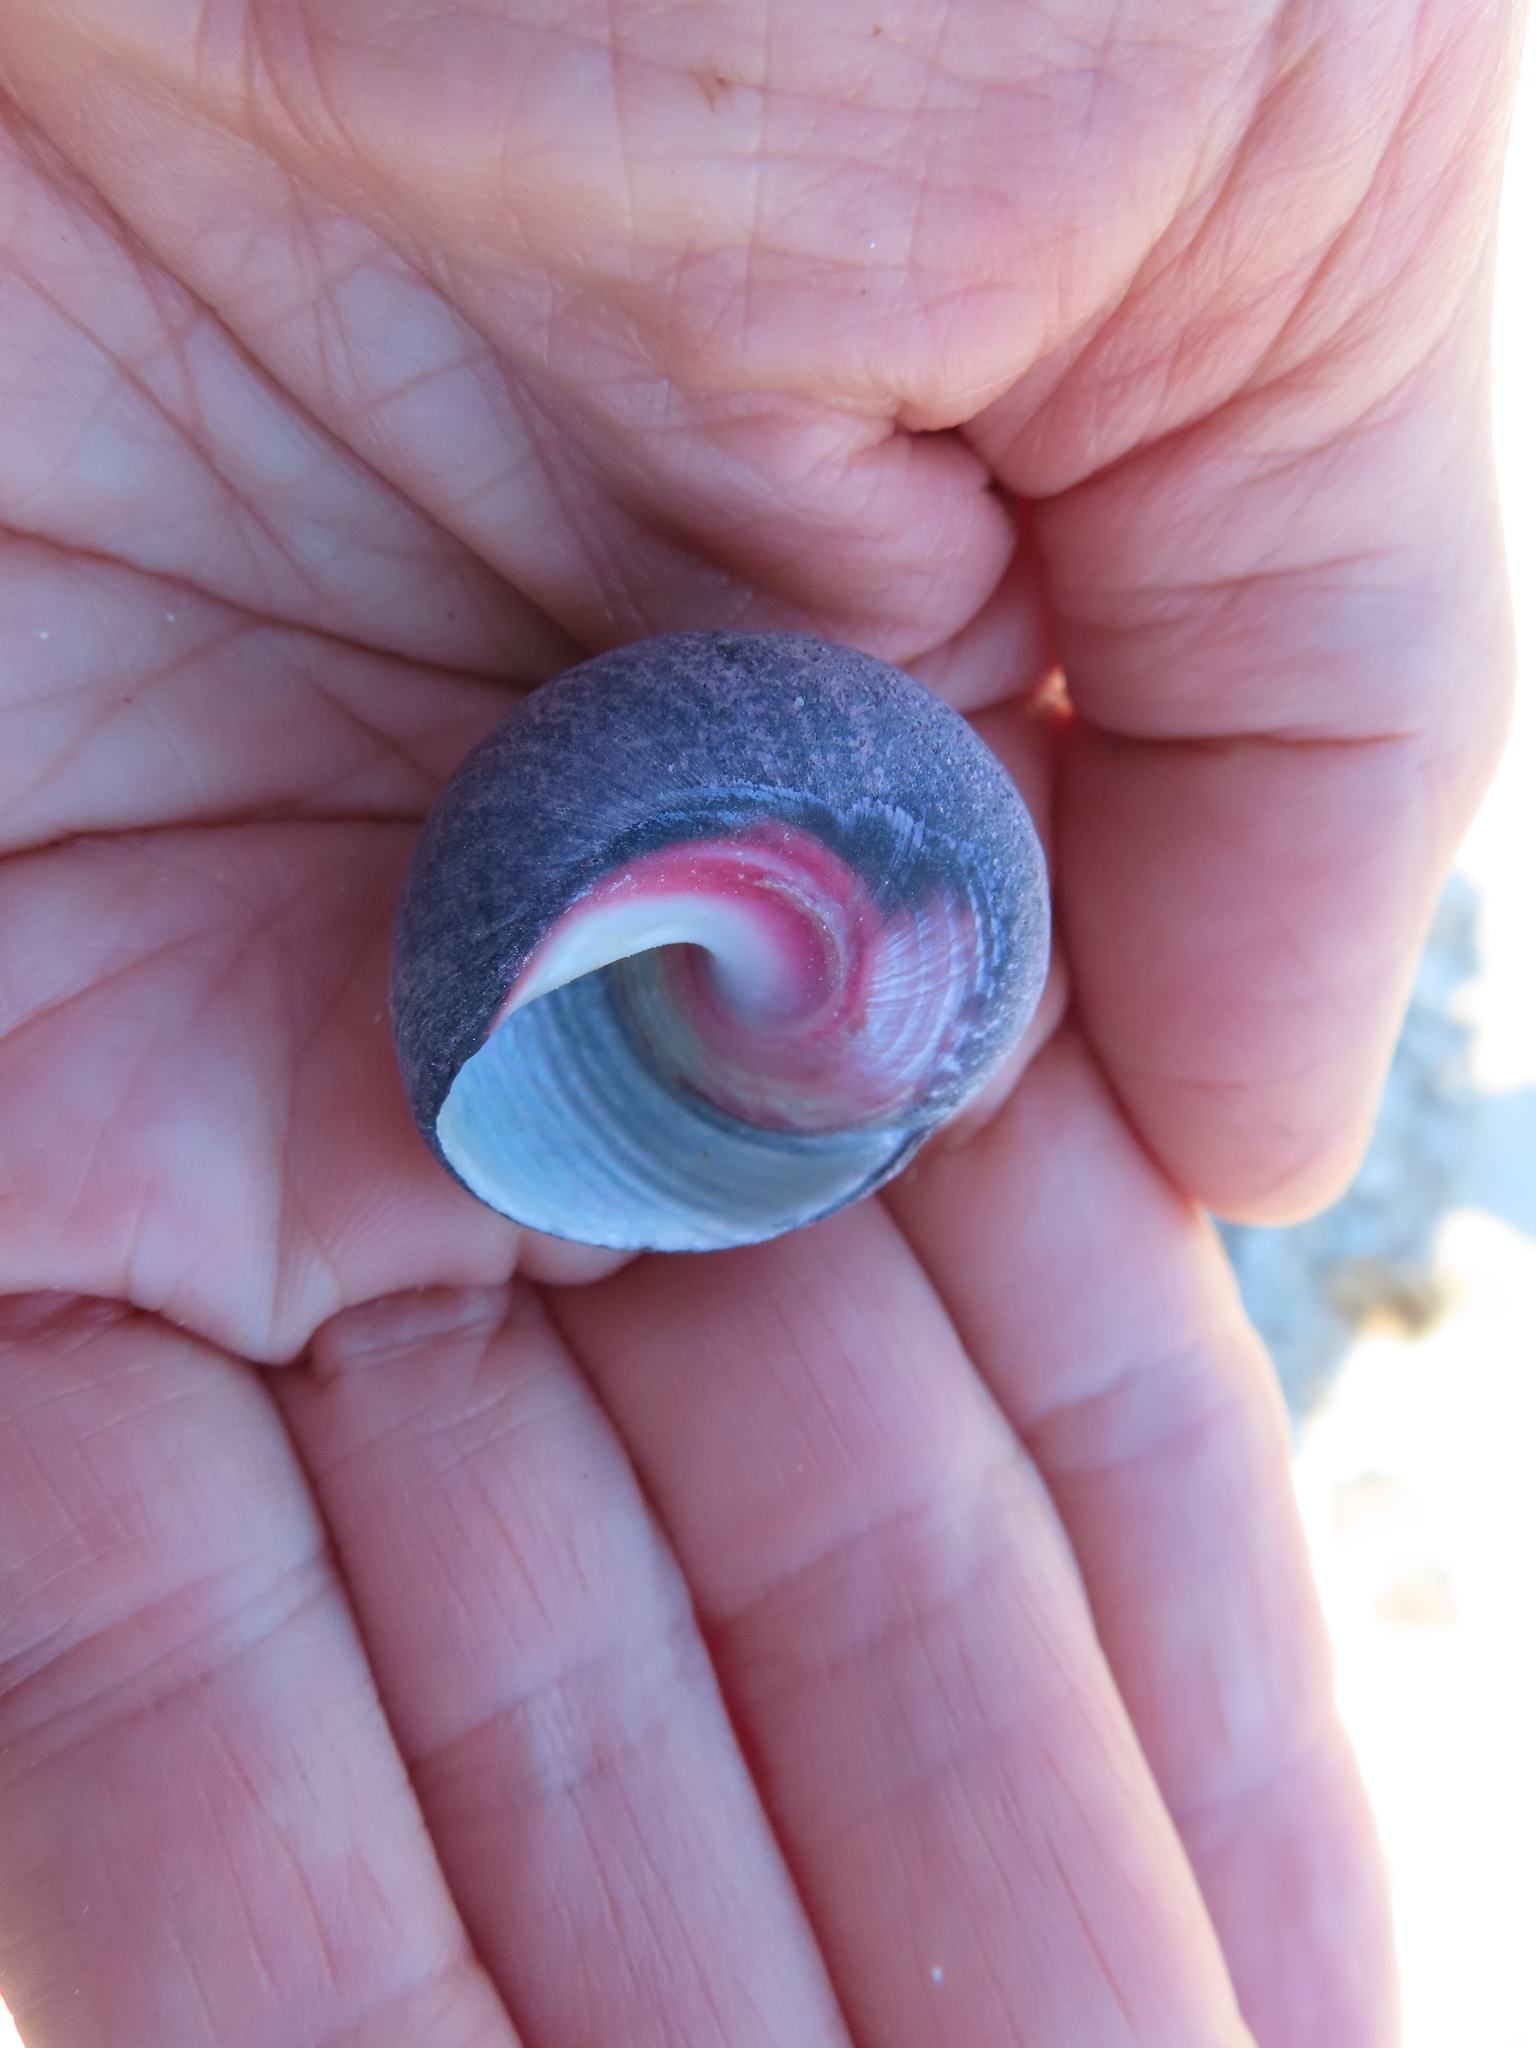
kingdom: Animalia
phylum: Mollusca
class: Gastropoda
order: Trochida
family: Trochidae
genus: Oxystele
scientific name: Oxystele sinensis
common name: Pink-lipped topshell
